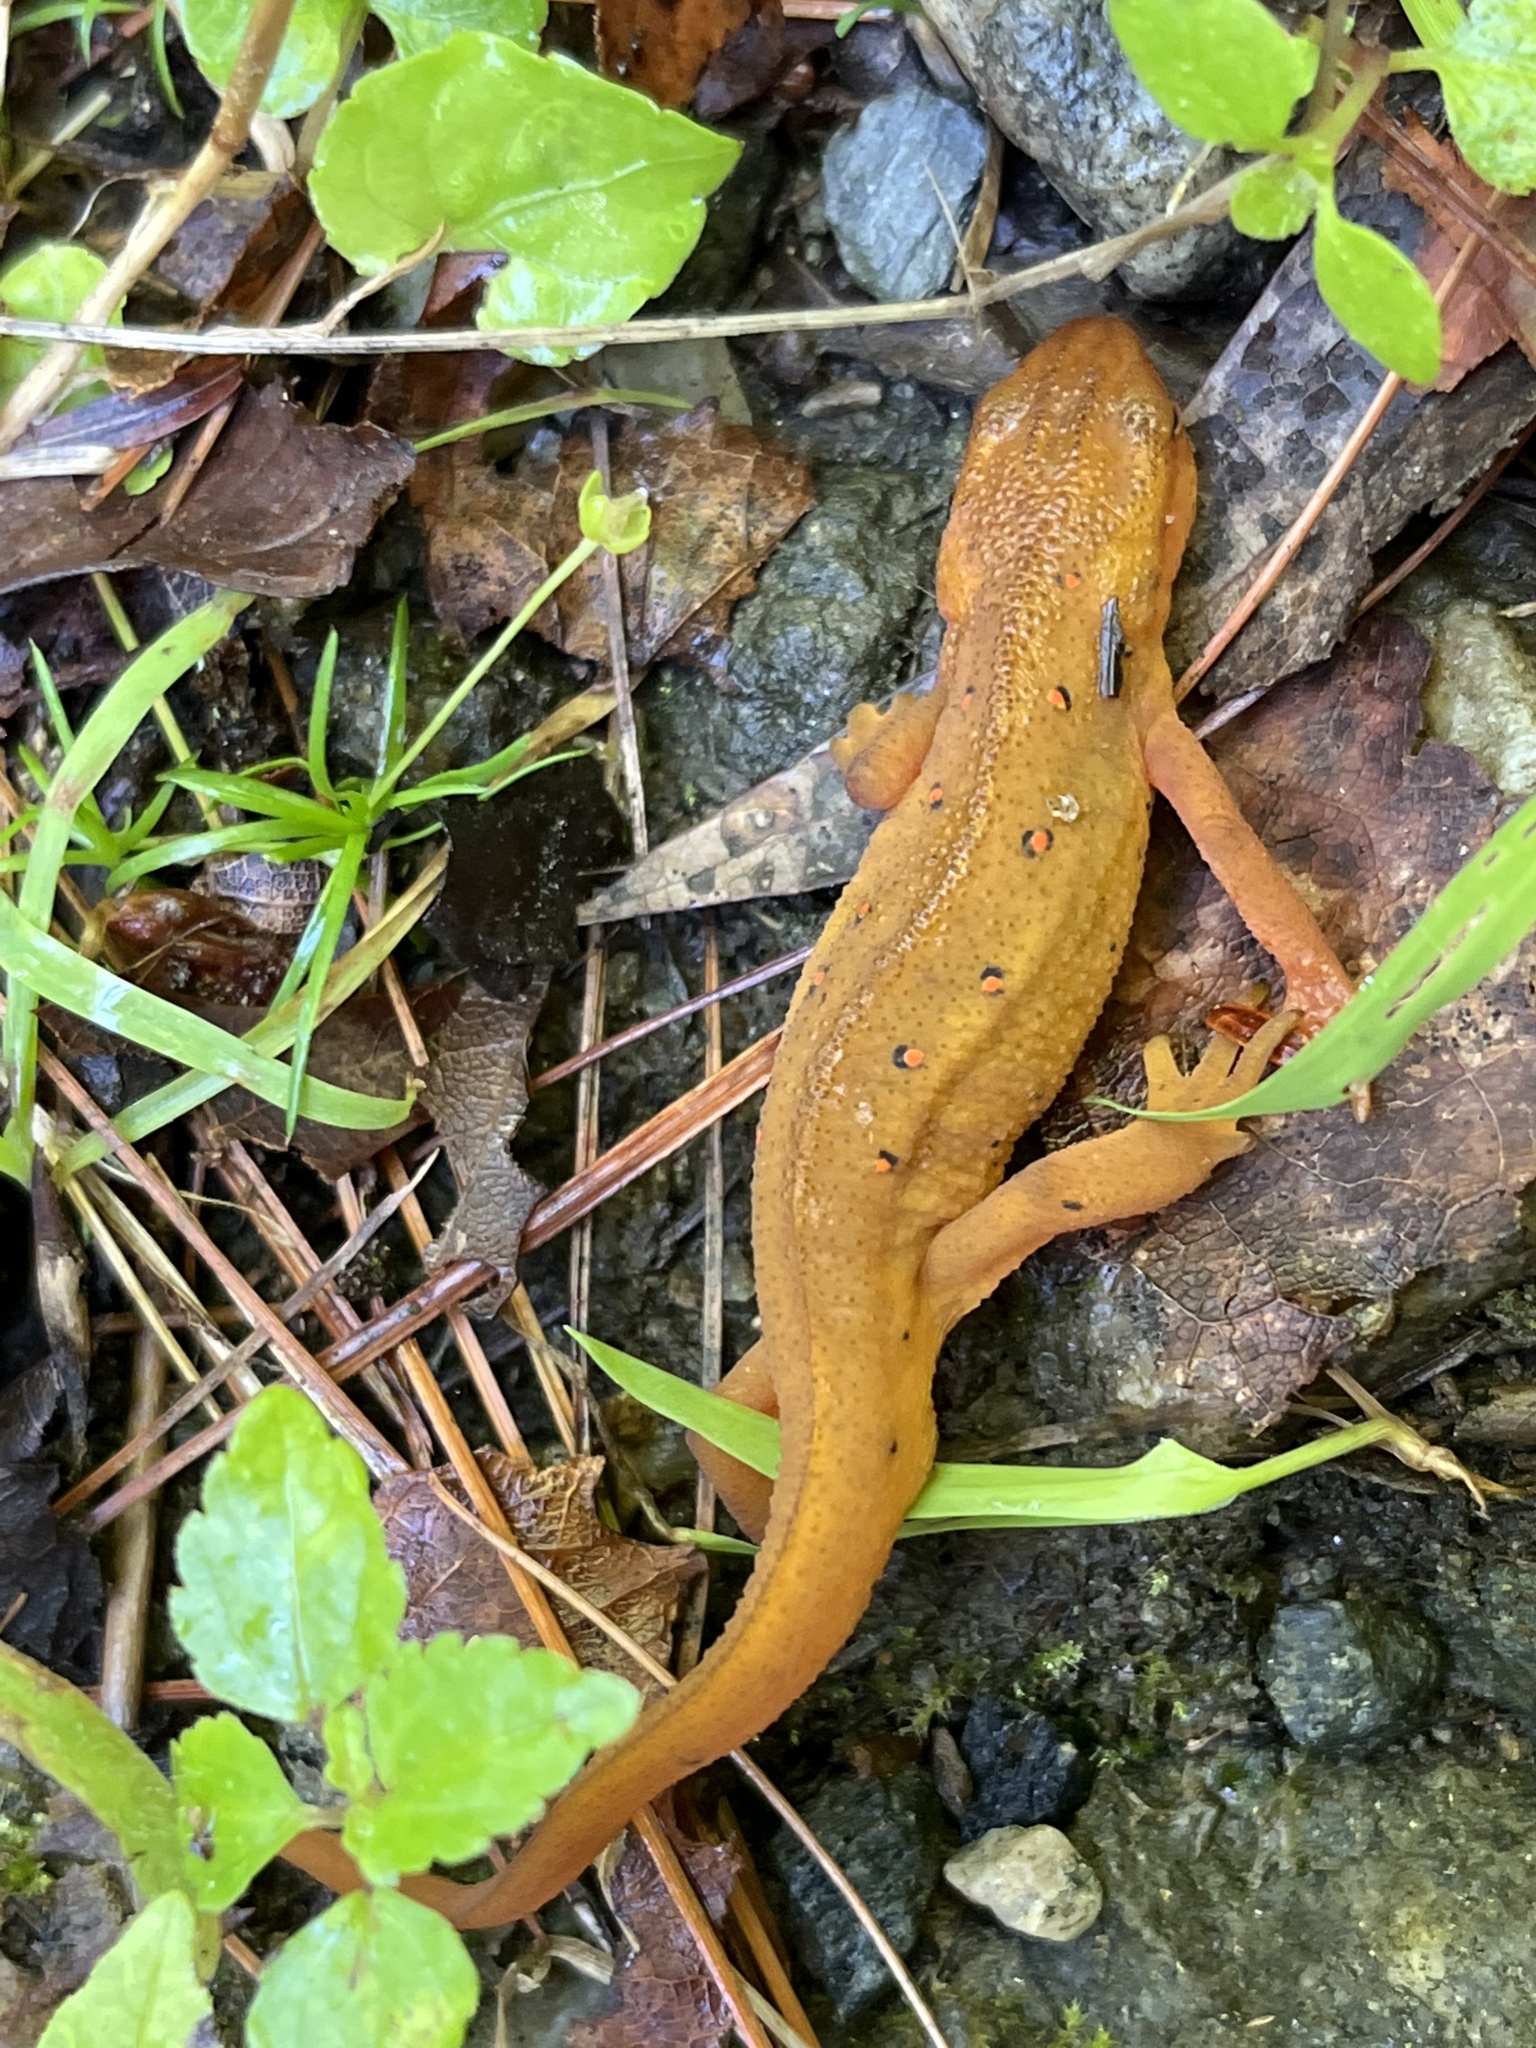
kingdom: Animalia
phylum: Chordata
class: Amphibia
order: Caudata
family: Salamandridae
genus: Notophthalmus
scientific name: Notophthalmus viridescens
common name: Eastern newt
